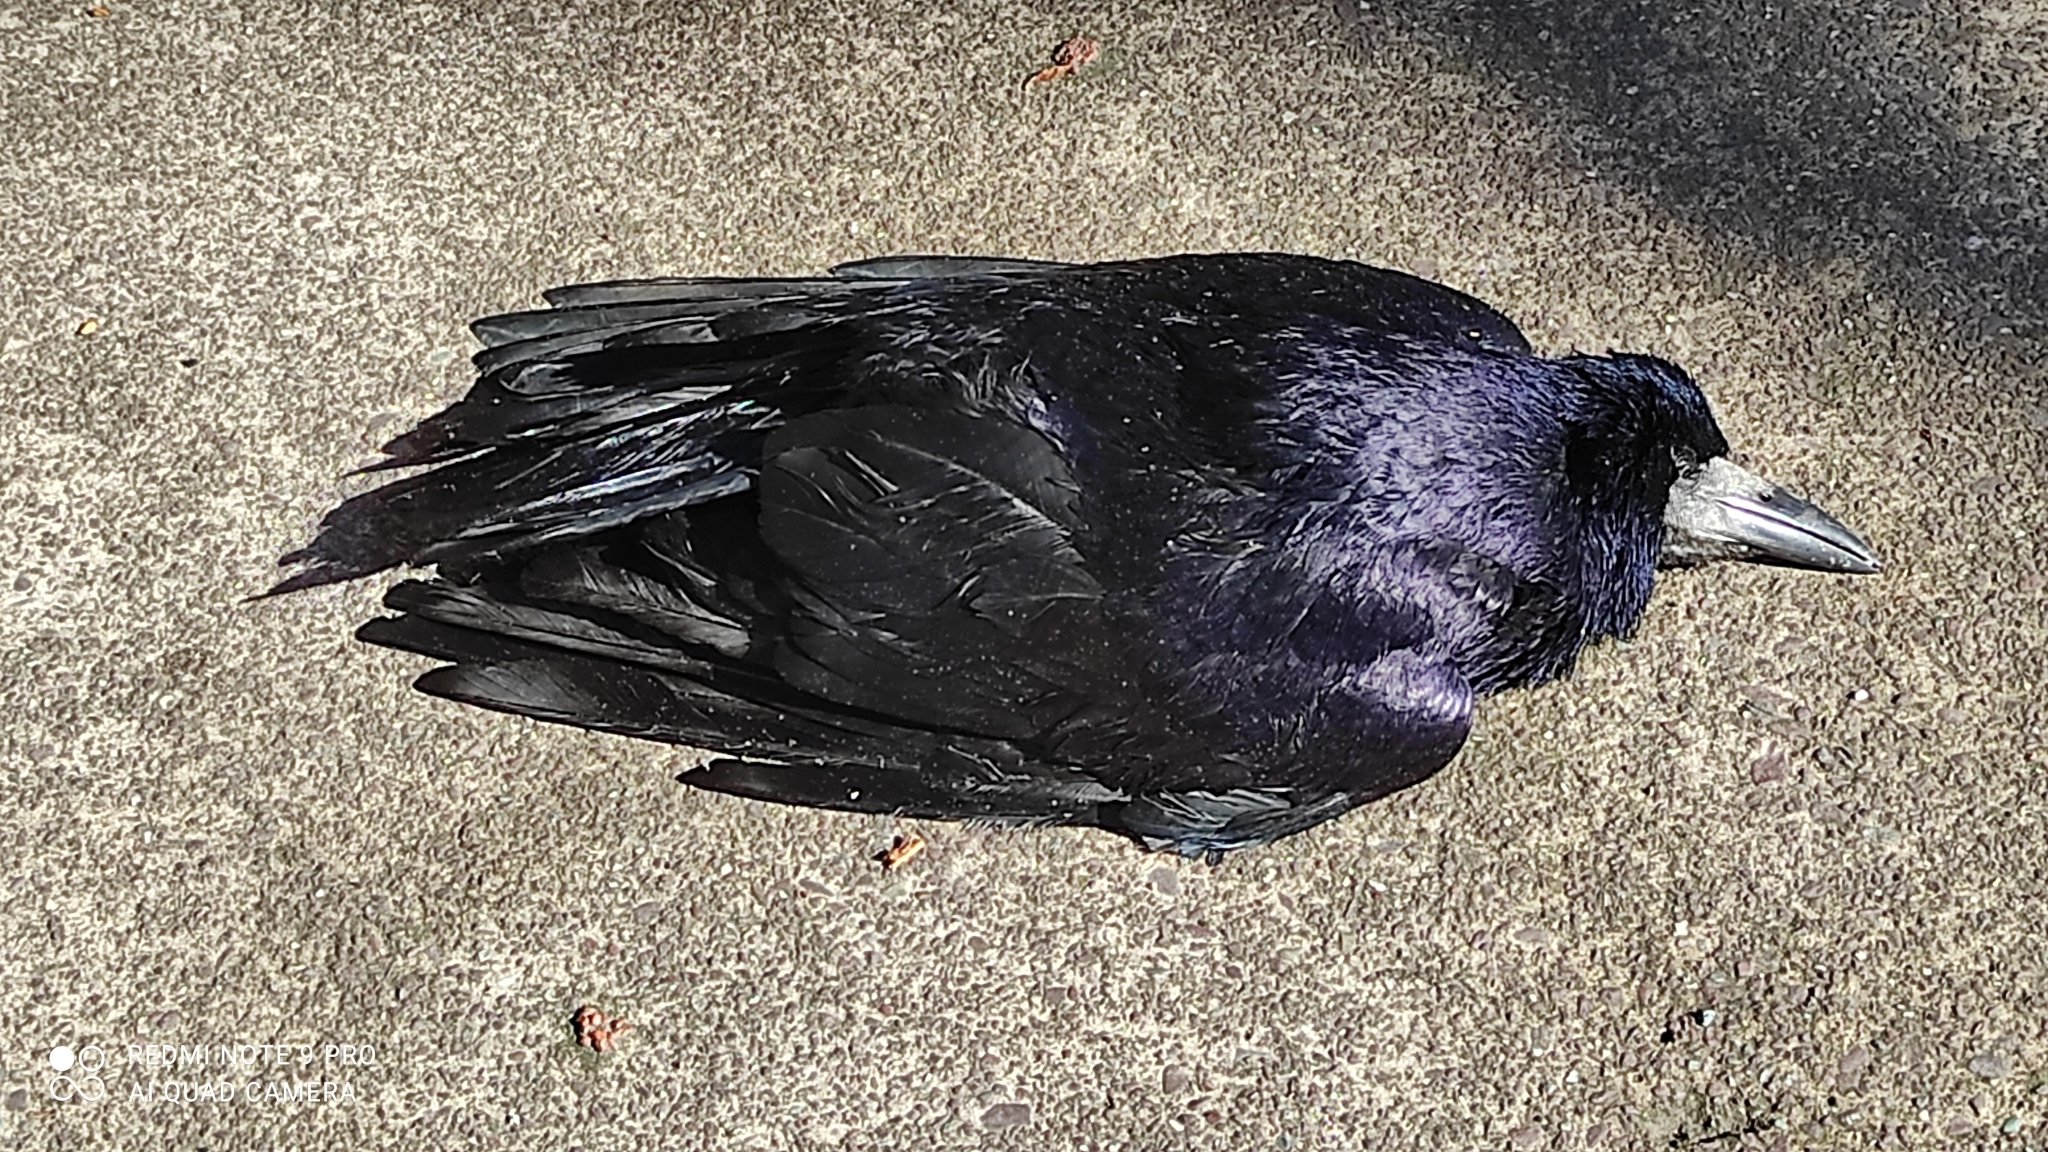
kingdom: Animalia
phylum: Chordata
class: Aves
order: Passeriformes
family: Corvidae
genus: Corvus
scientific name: Corvus frugilegus
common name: Rook
